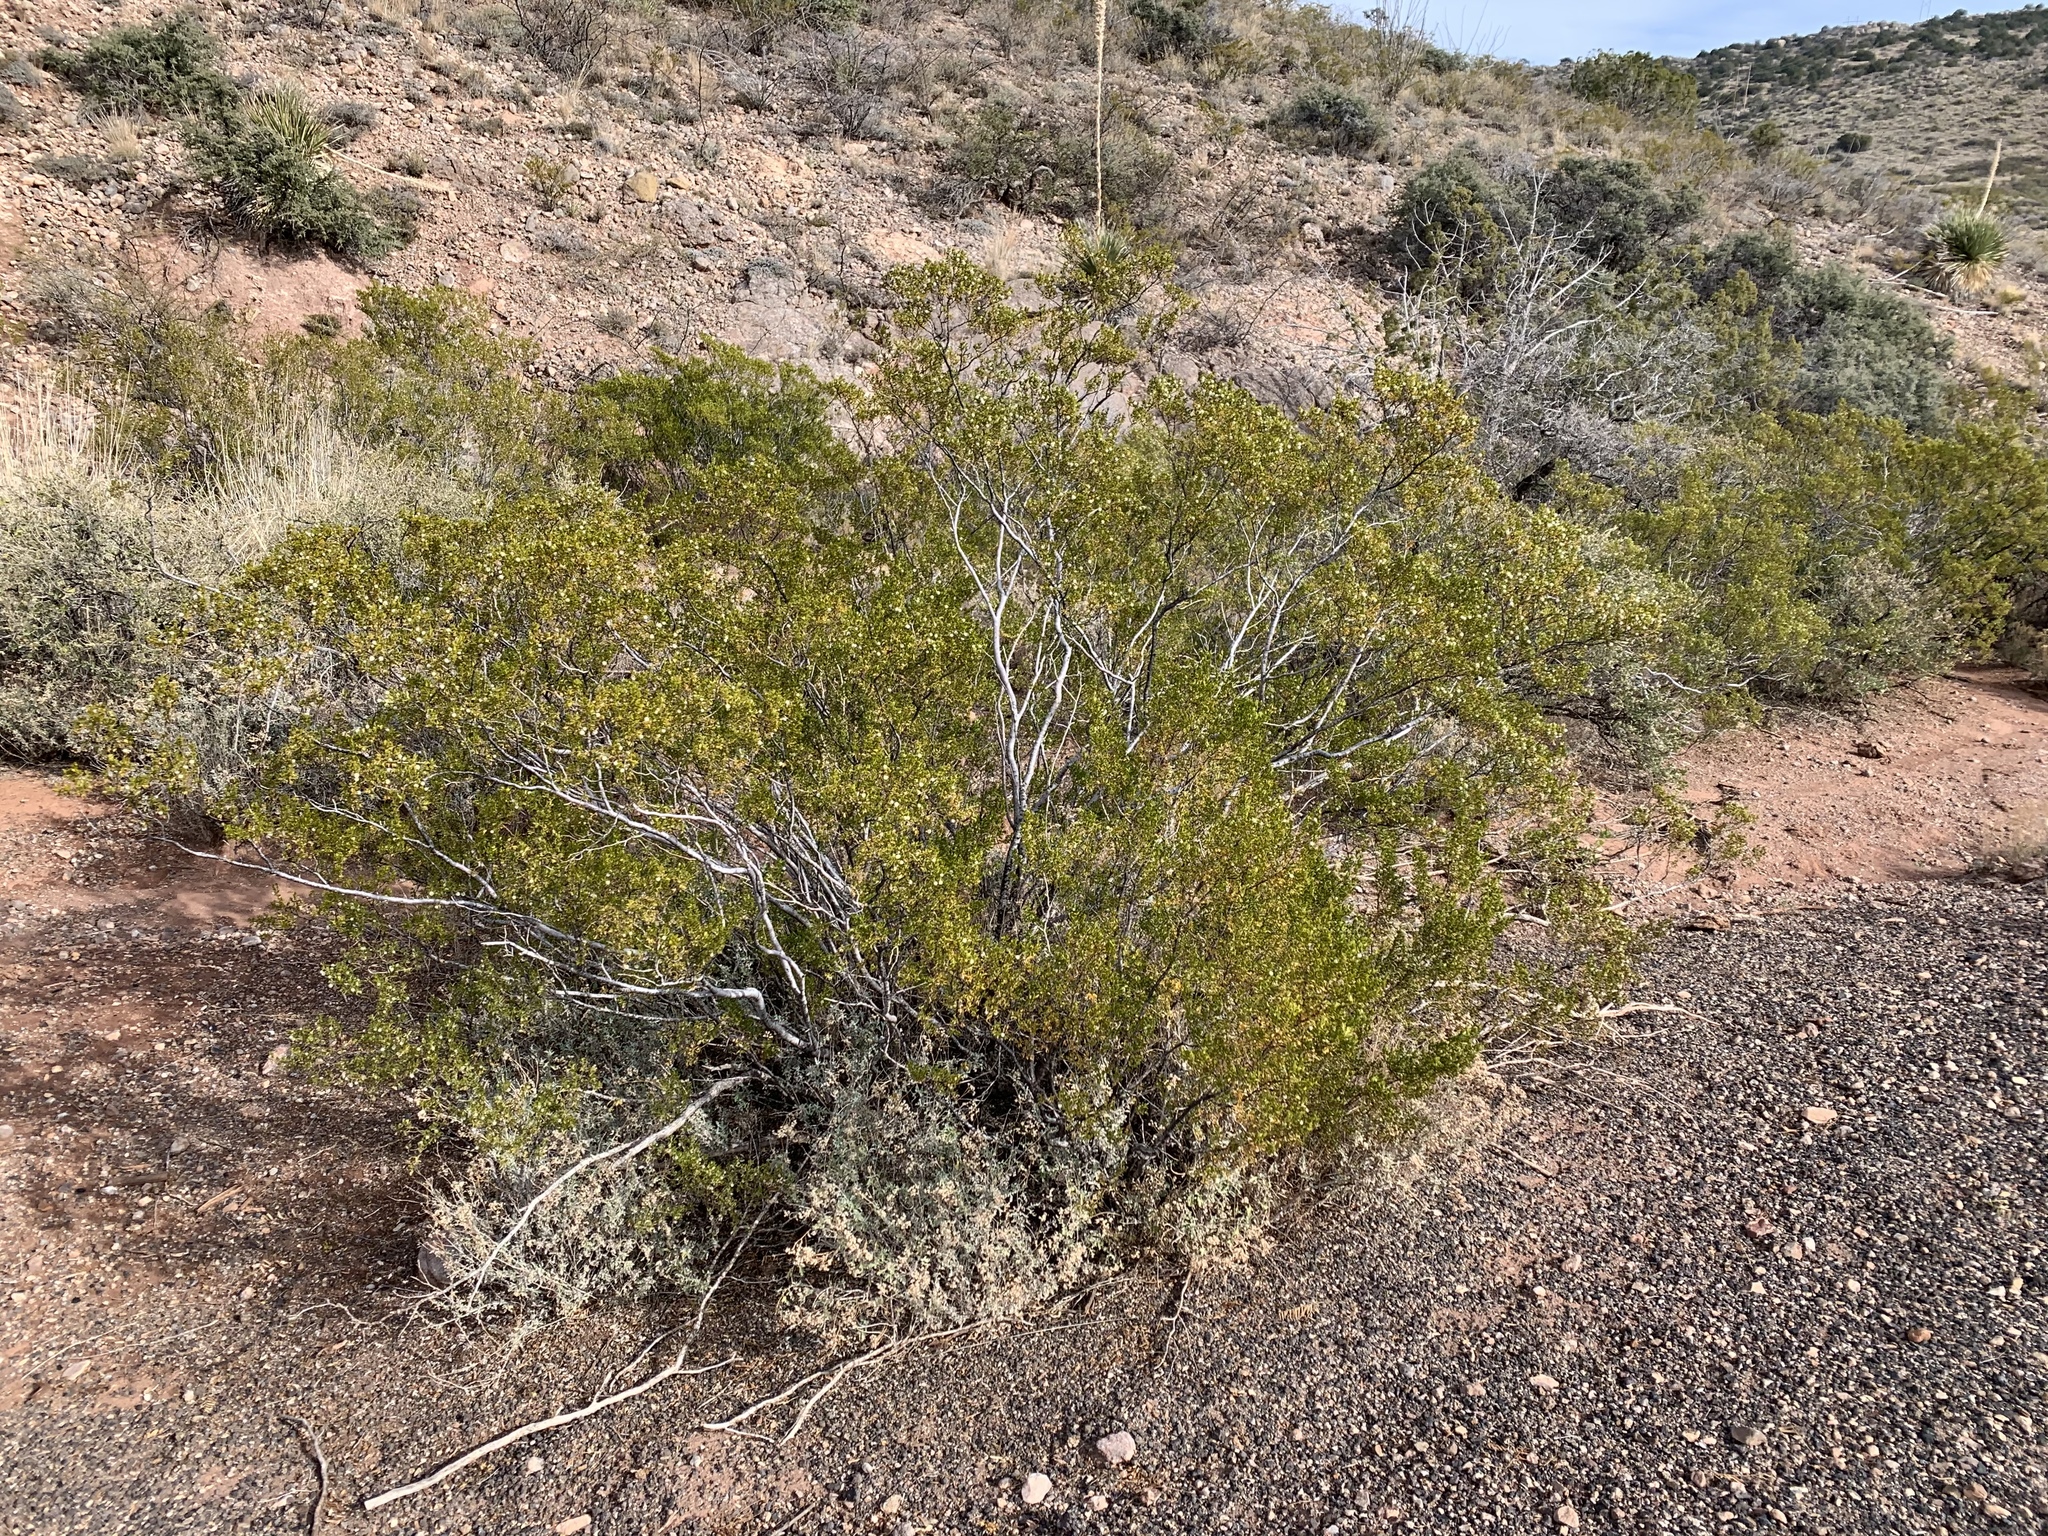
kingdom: Plantae
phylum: Tracheophyta
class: Magnoliopsida
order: Zygophyllales
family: Zygophyllaceae
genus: Larrea
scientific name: Larrea tridentata
